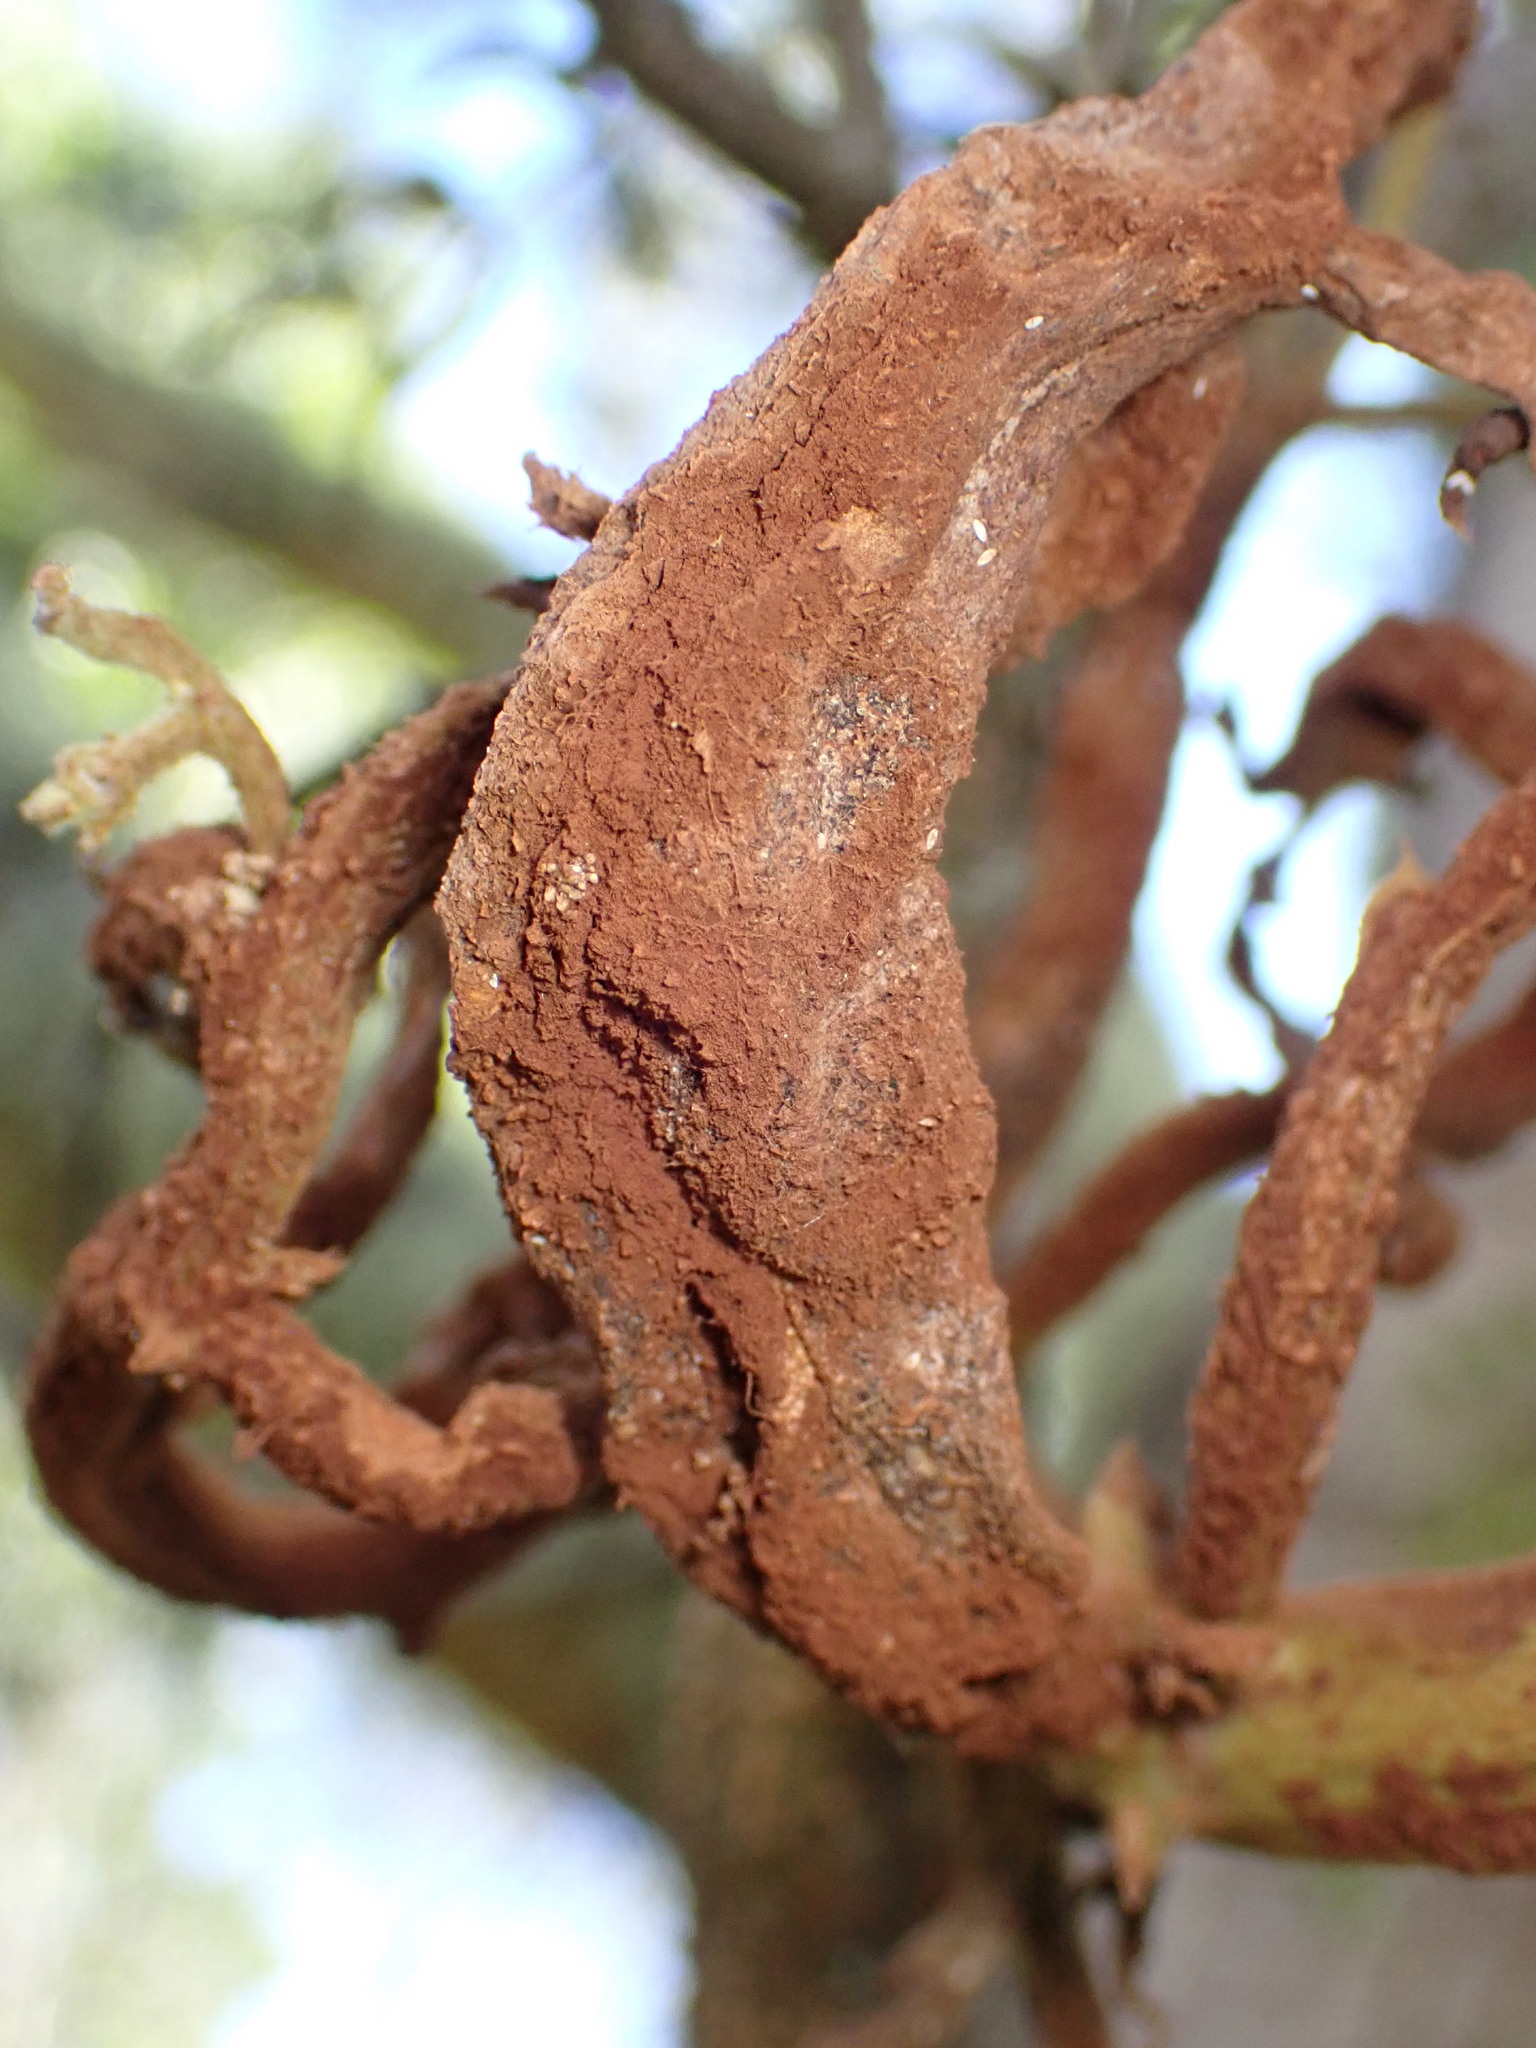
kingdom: Fungi
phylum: Basidiomycota
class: Pucciniomycetes
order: Pucciniales
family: Endoraeciaceae
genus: Endoraecium
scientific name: Endoraecium digitatum
